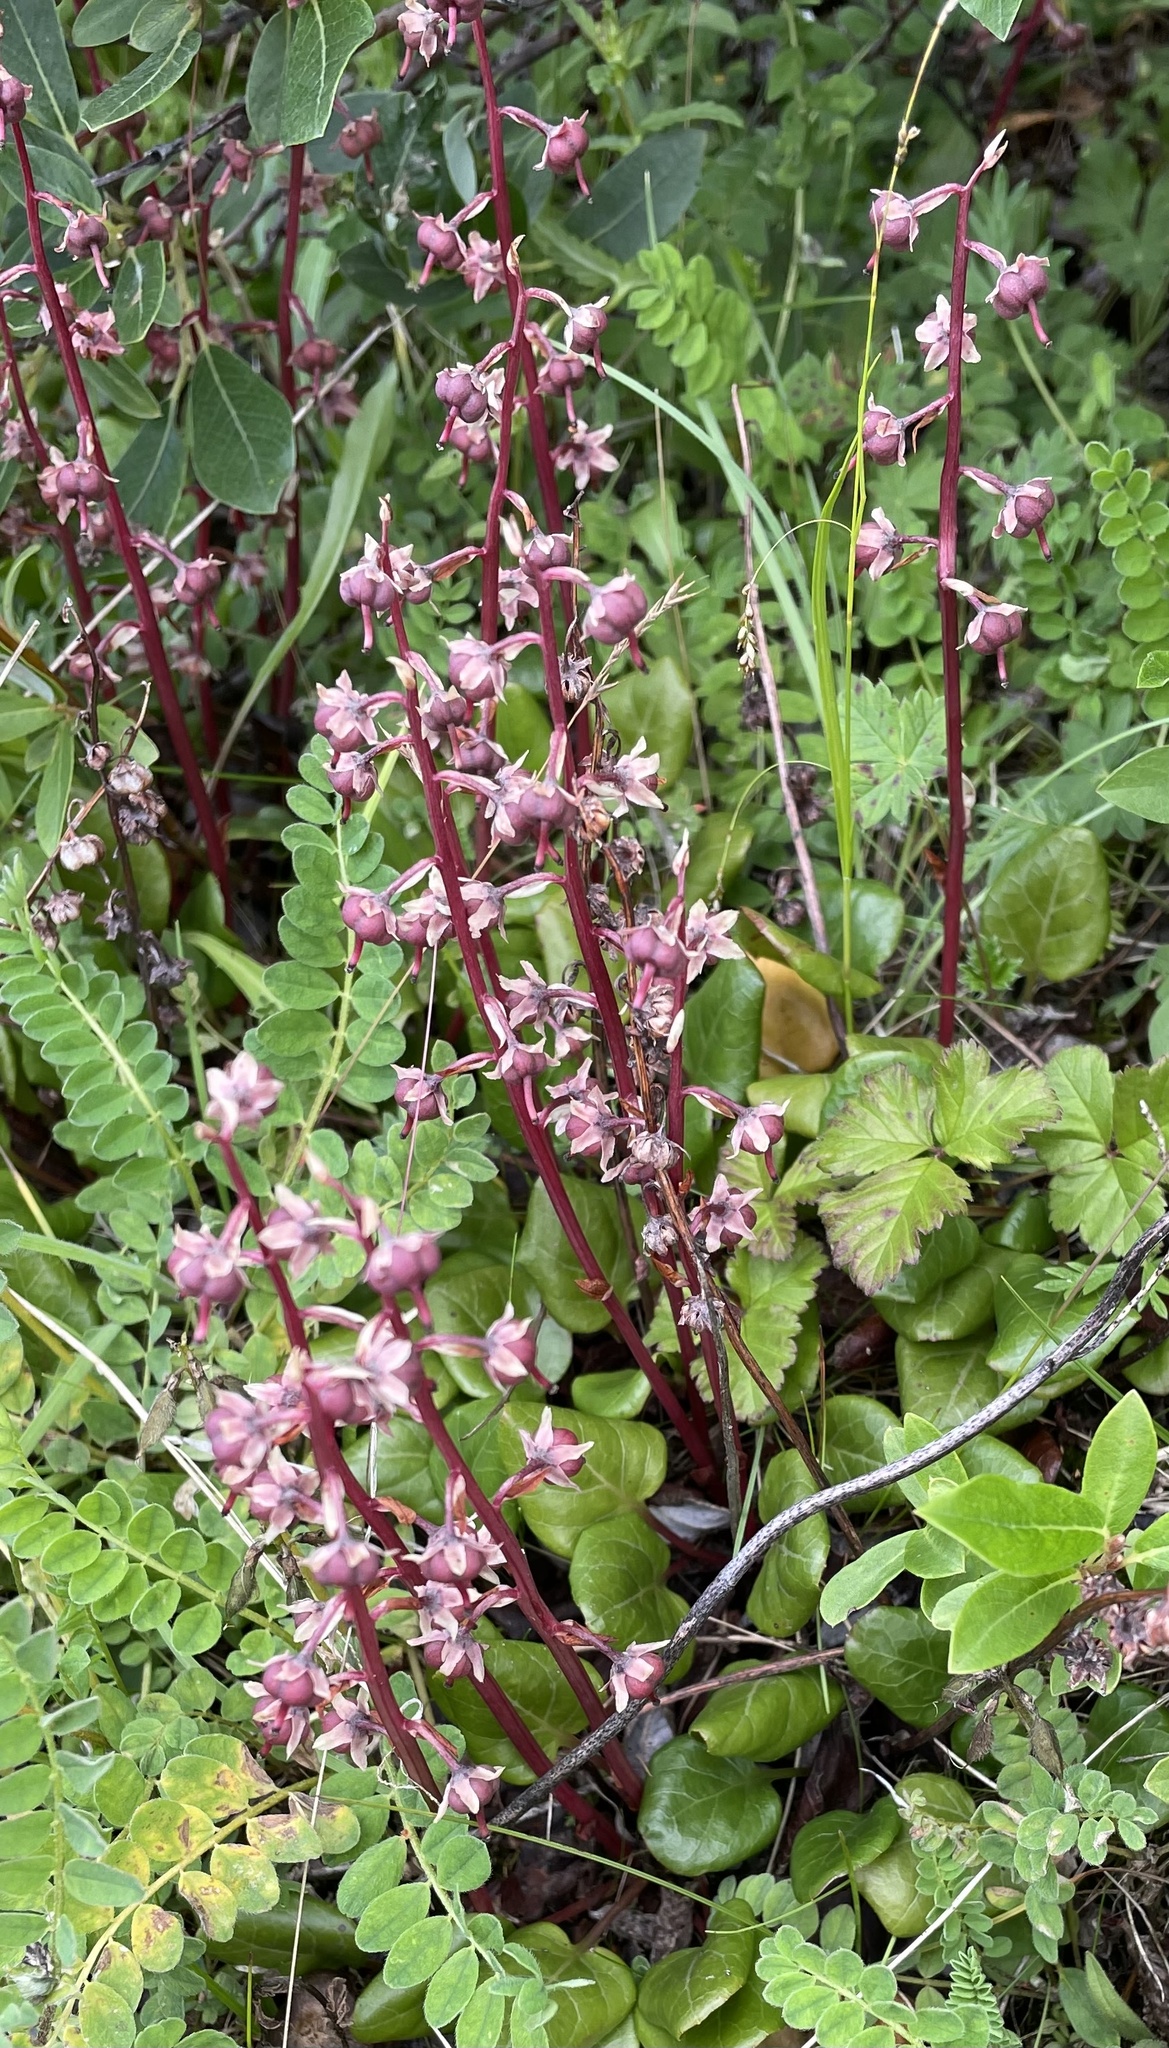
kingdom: Plantae
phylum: Tracheophyta
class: Magnoliopsida
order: Ericales
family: Ericaceae
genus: Pyrola
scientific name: Pyrola grandiflora
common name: Arctic pyrola
